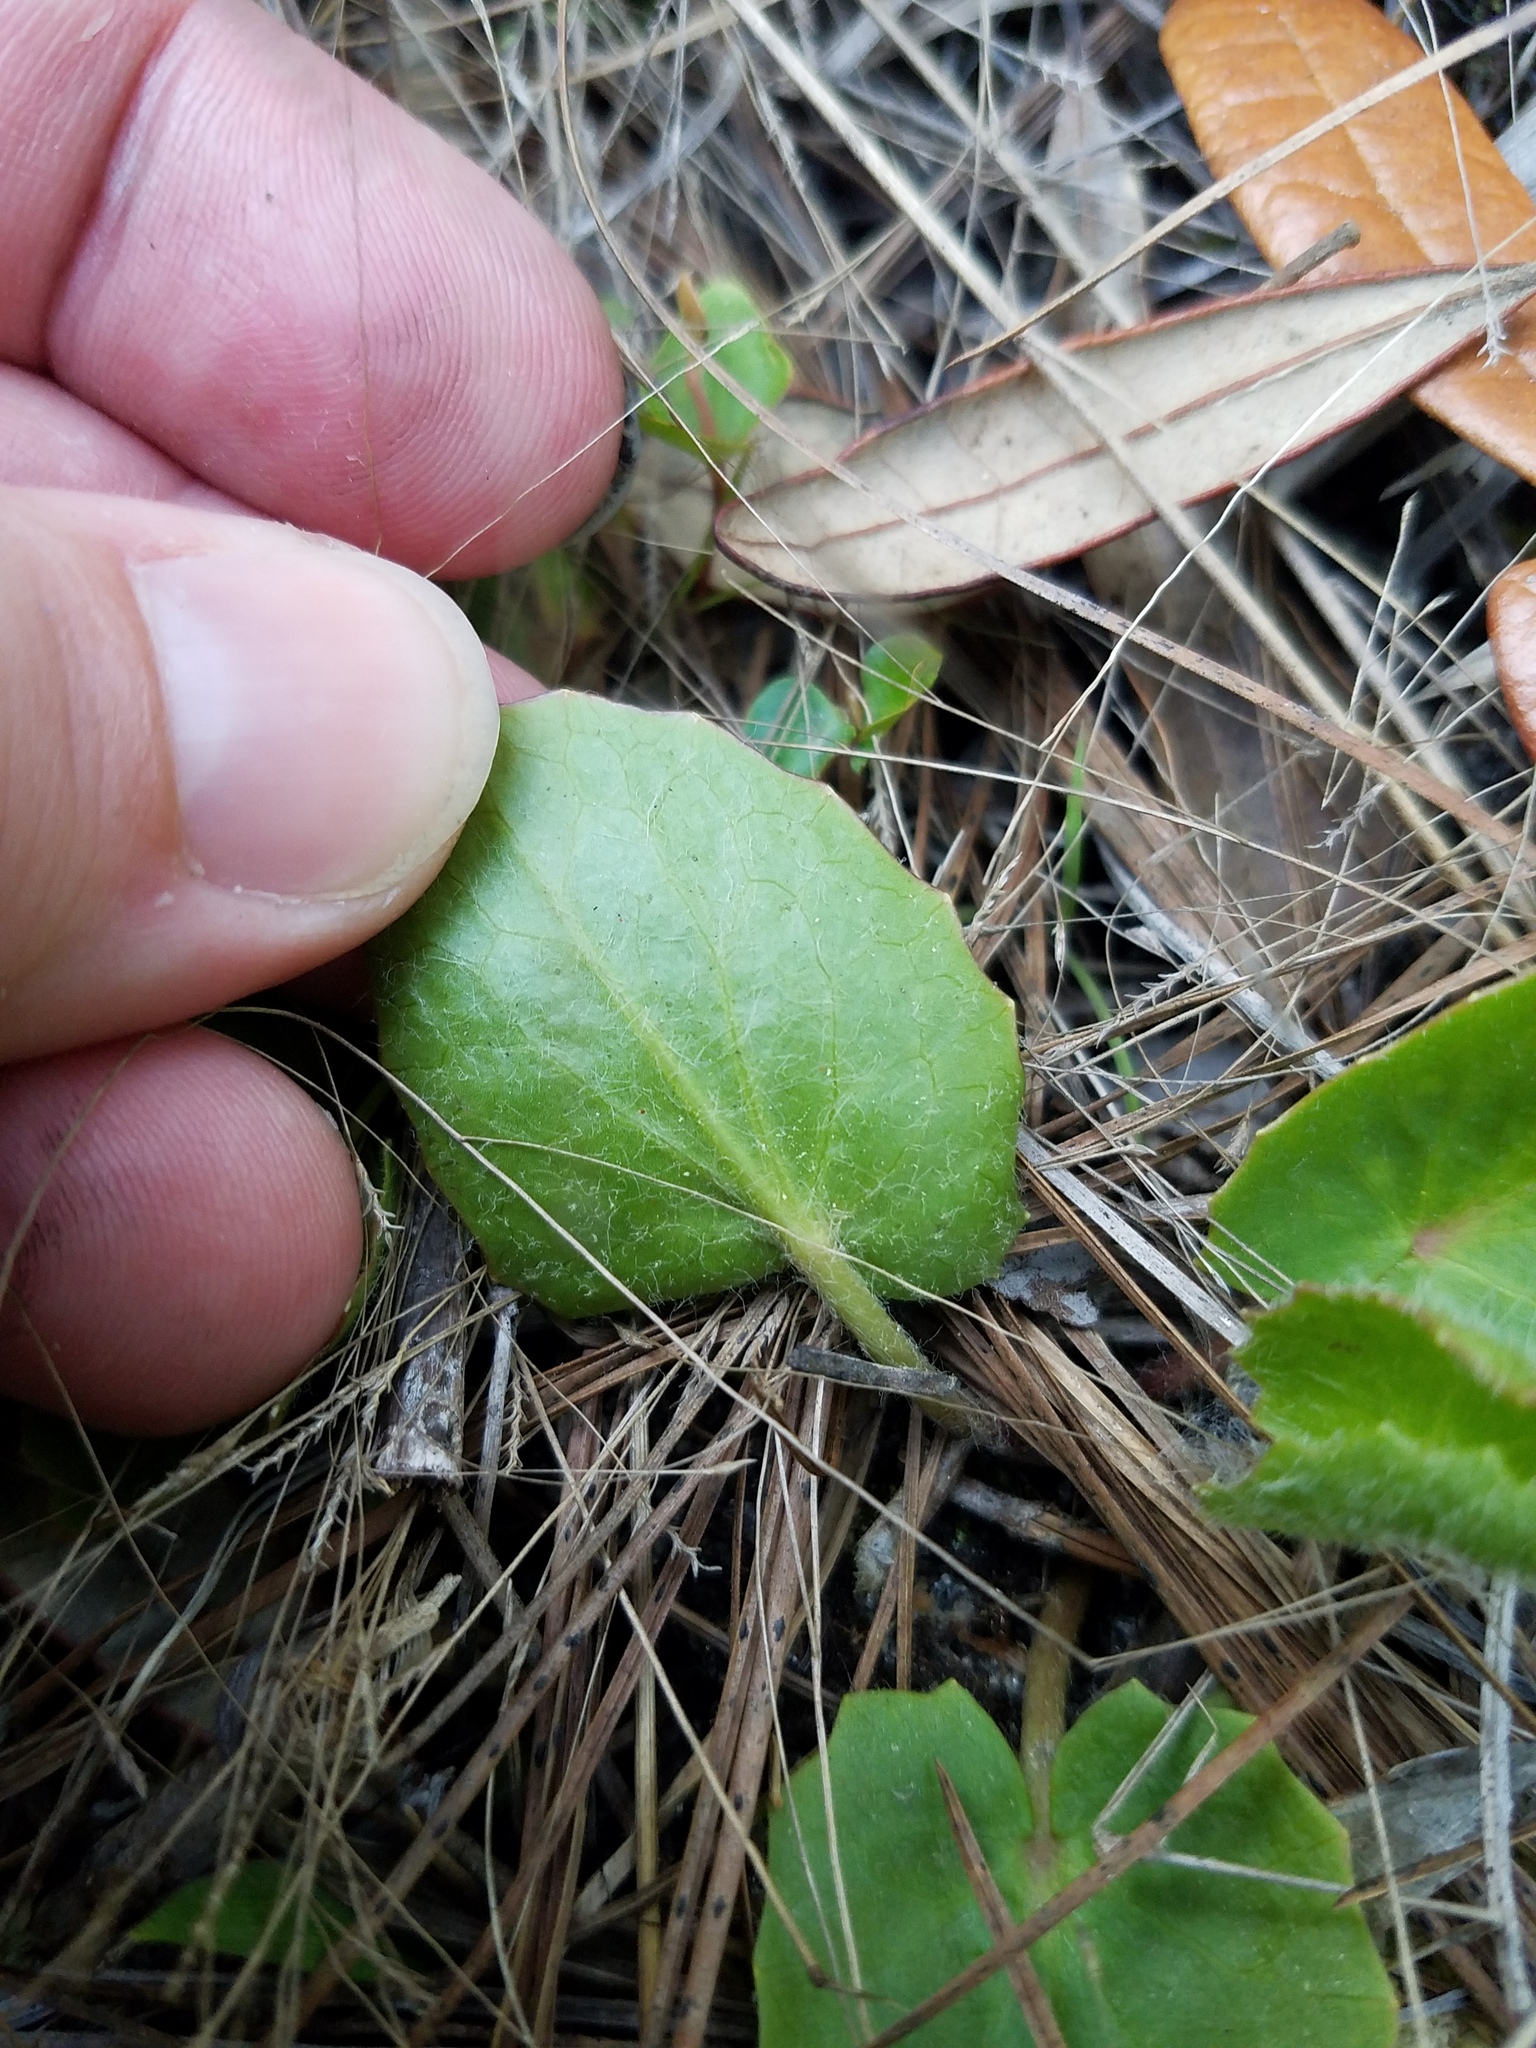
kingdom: Plantae
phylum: Tracheophyta
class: Magnoliopsida
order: Apiales
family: Apiaceae
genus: Centella
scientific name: Centella erecta
